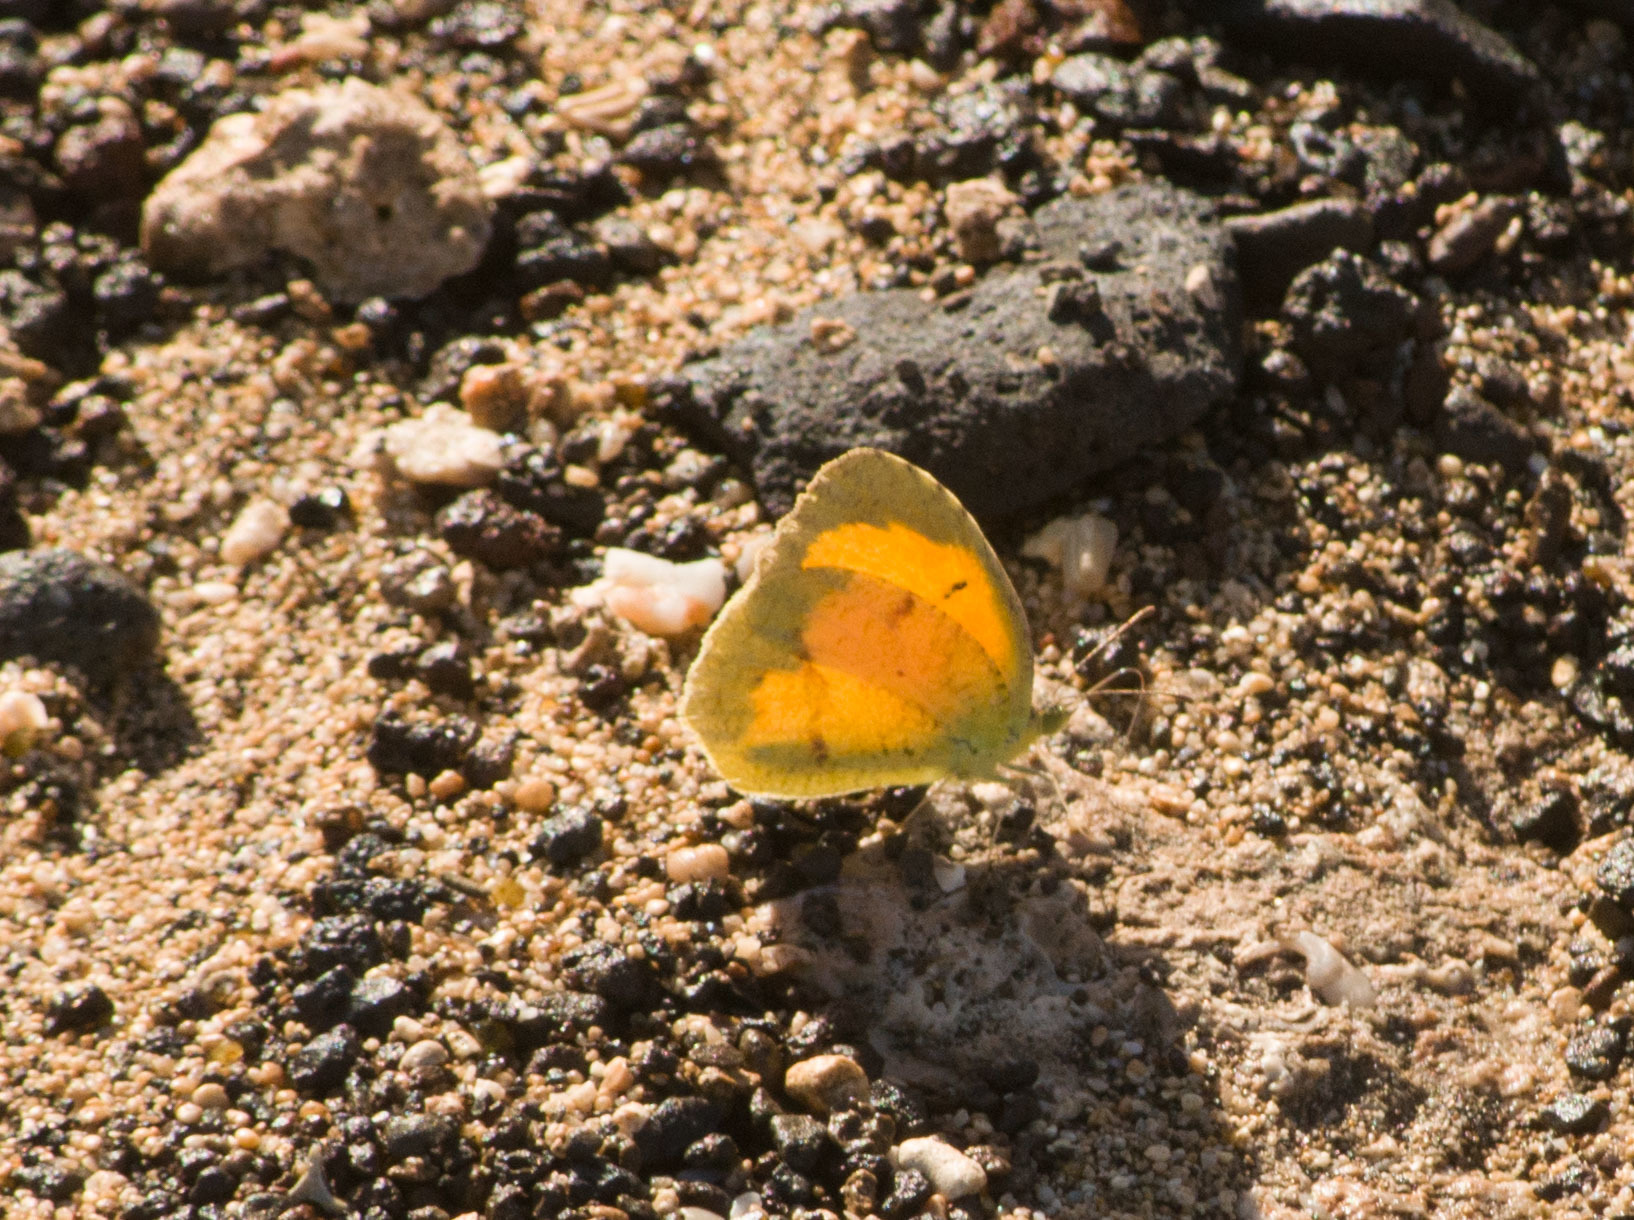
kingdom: Animalia
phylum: Arthropoda
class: Insecta
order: Lepidoptera
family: Pieridae
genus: Abaeis
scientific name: Abaeis nicippe
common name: Sleepy orange
